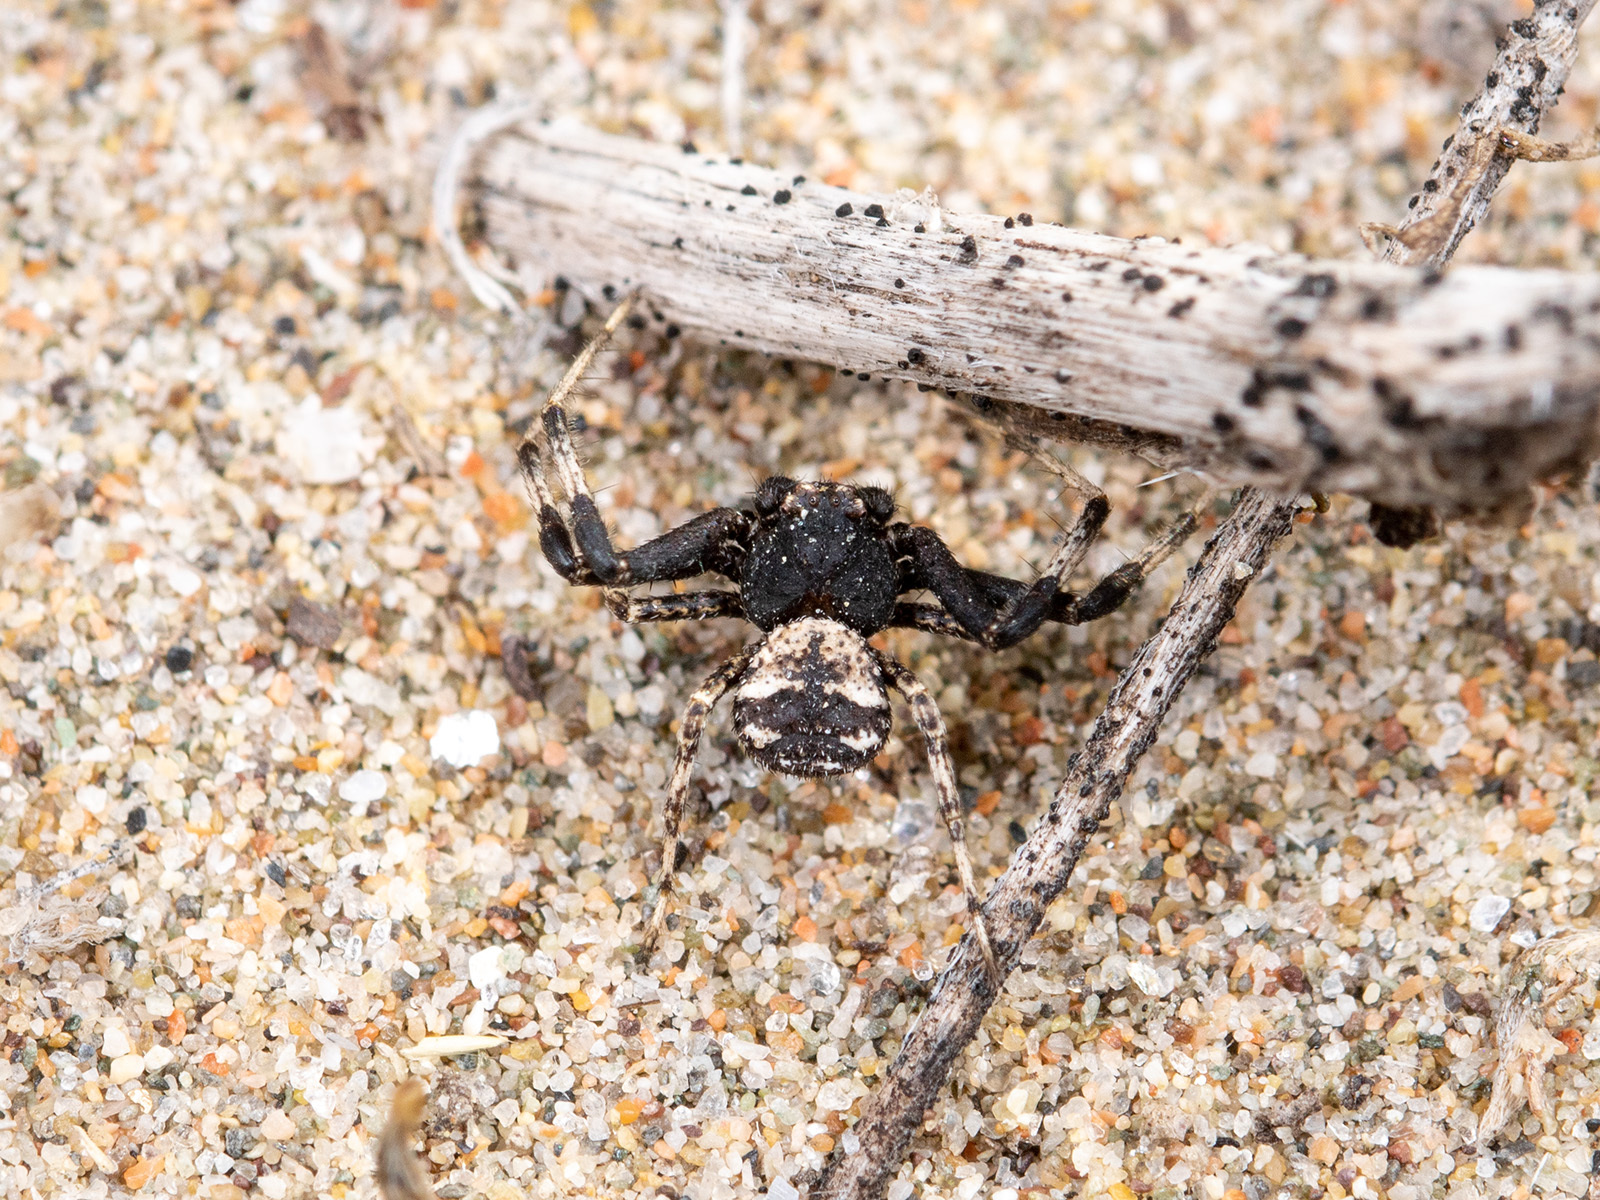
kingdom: Animalia
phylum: Arthropoda
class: Arachnida
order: Araneae
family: Thomisidae
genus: Ozyptila
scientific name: Ozyptila lugubris
